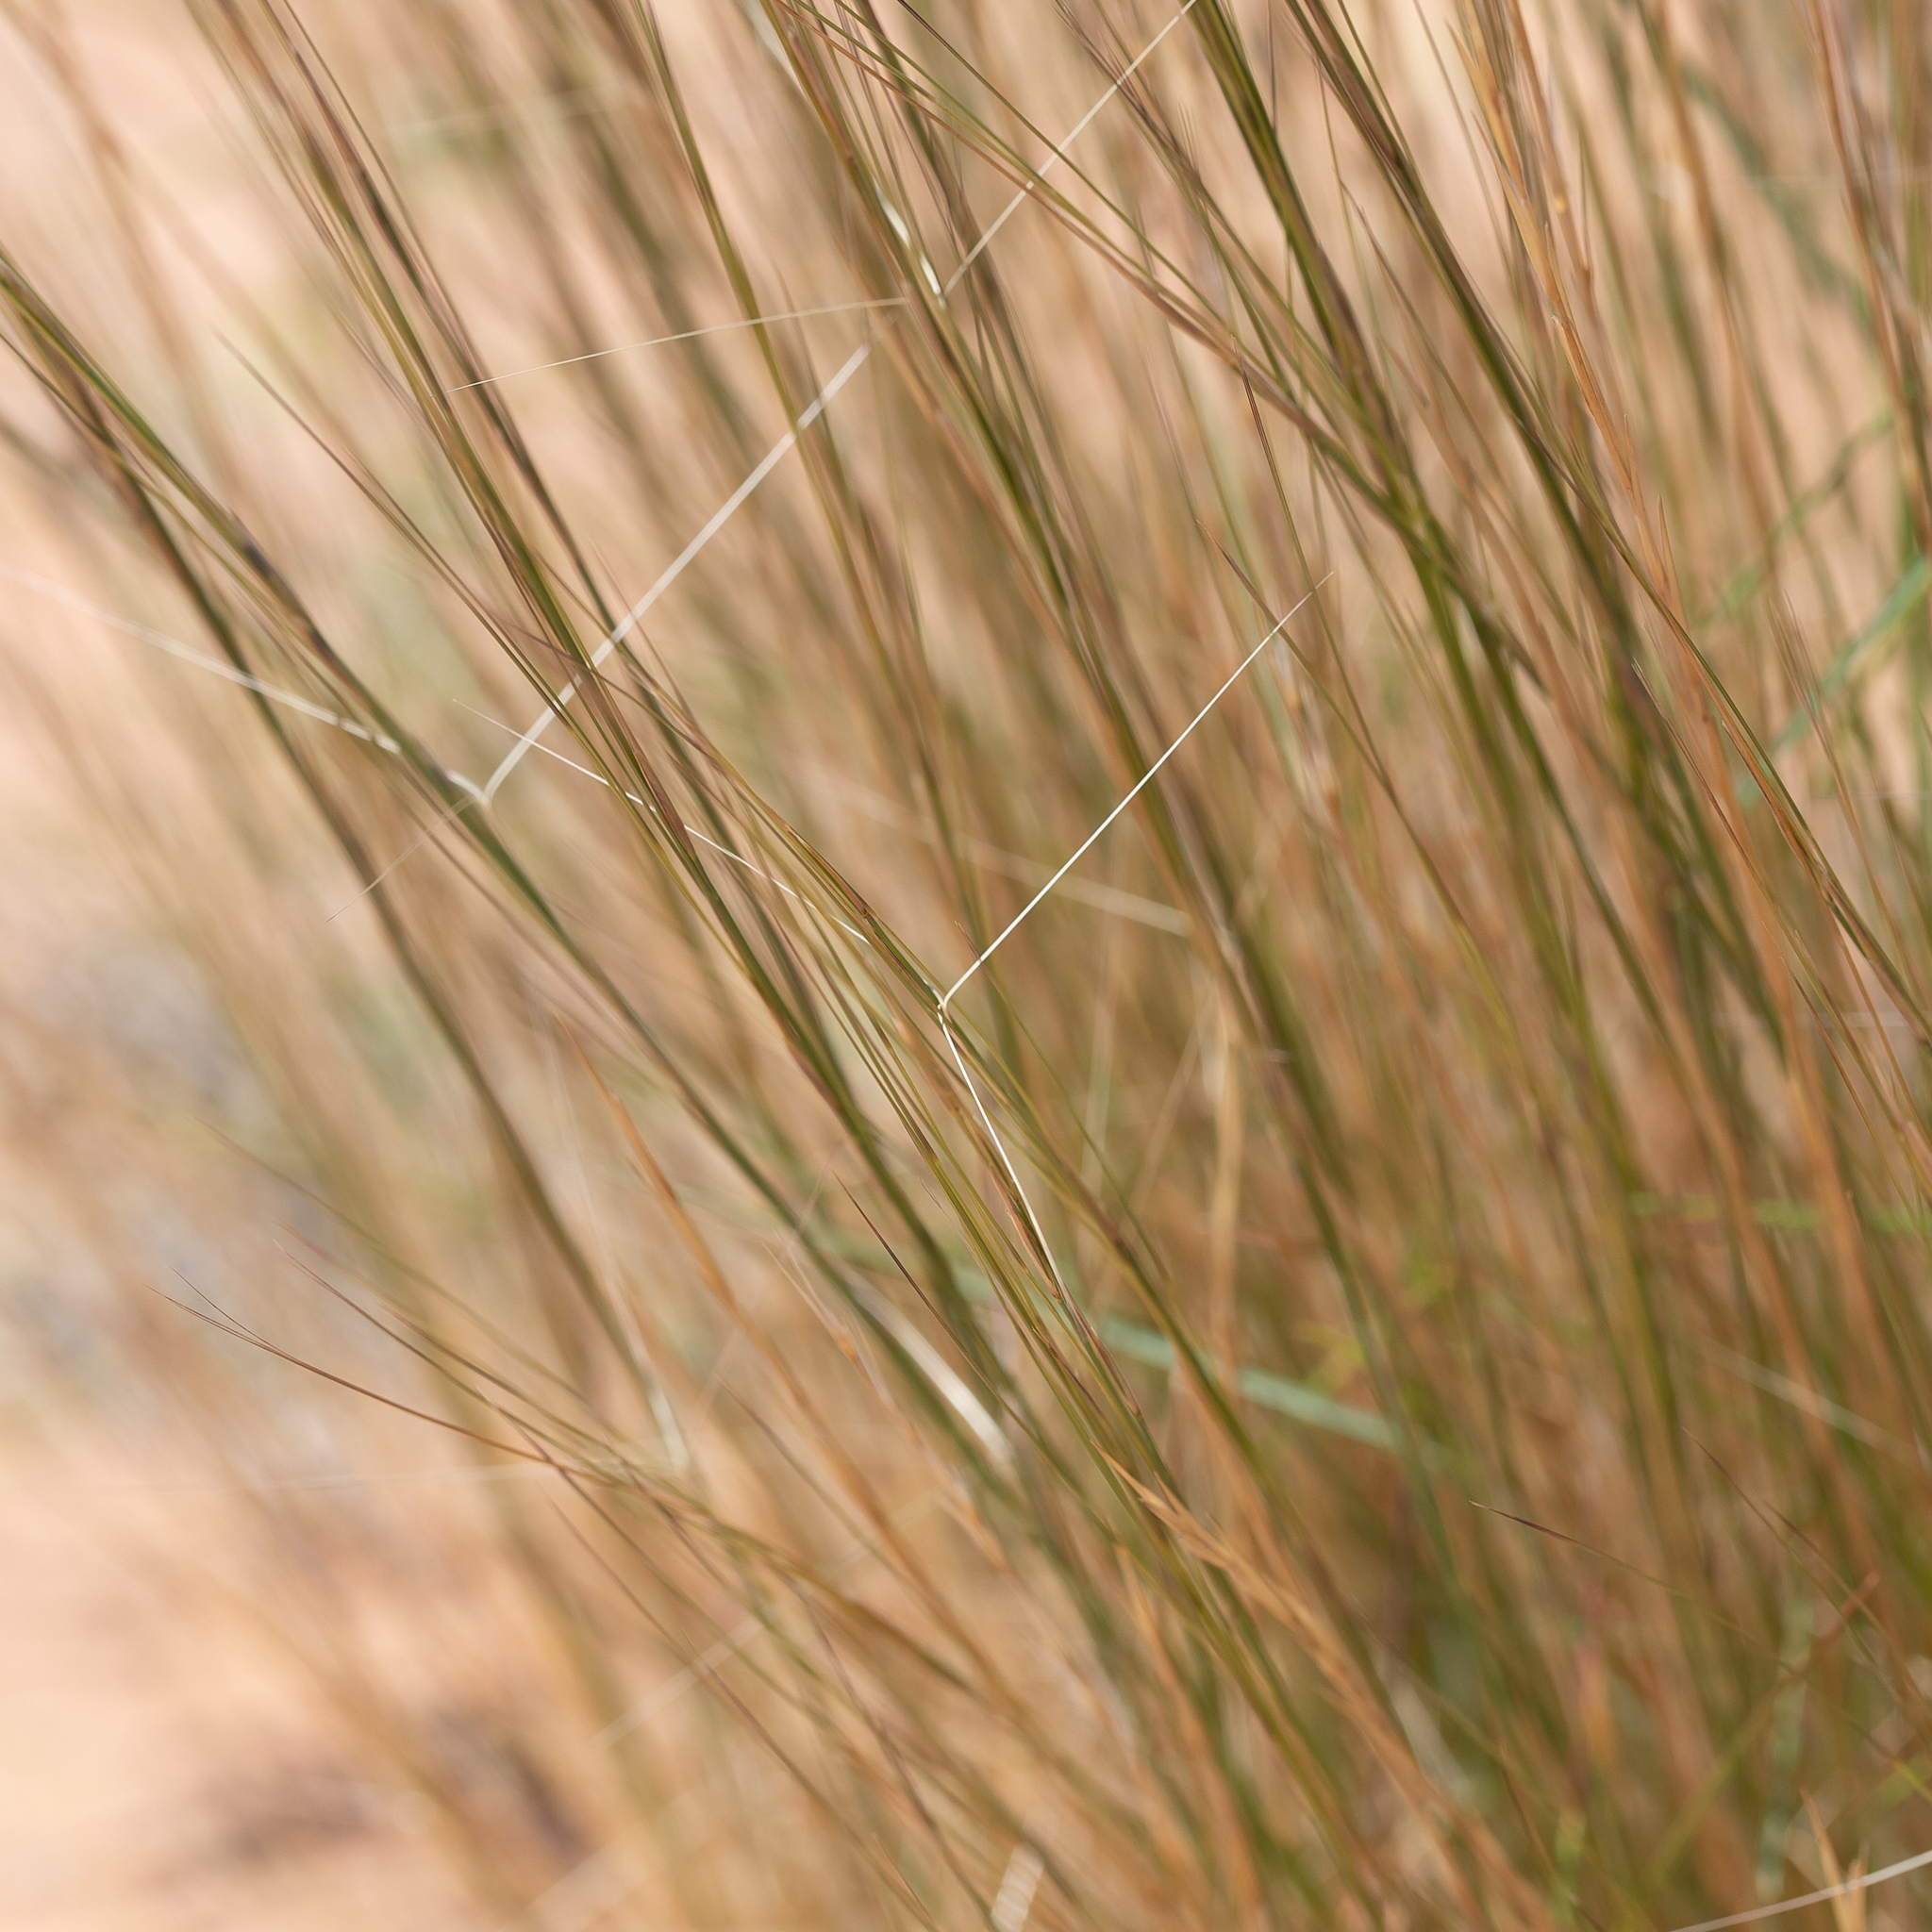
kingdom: Plantae
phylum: Tracheophyta
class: Liliopsida
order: Poales
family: Poaceae
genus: Aristida
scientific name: Aristida holathera
